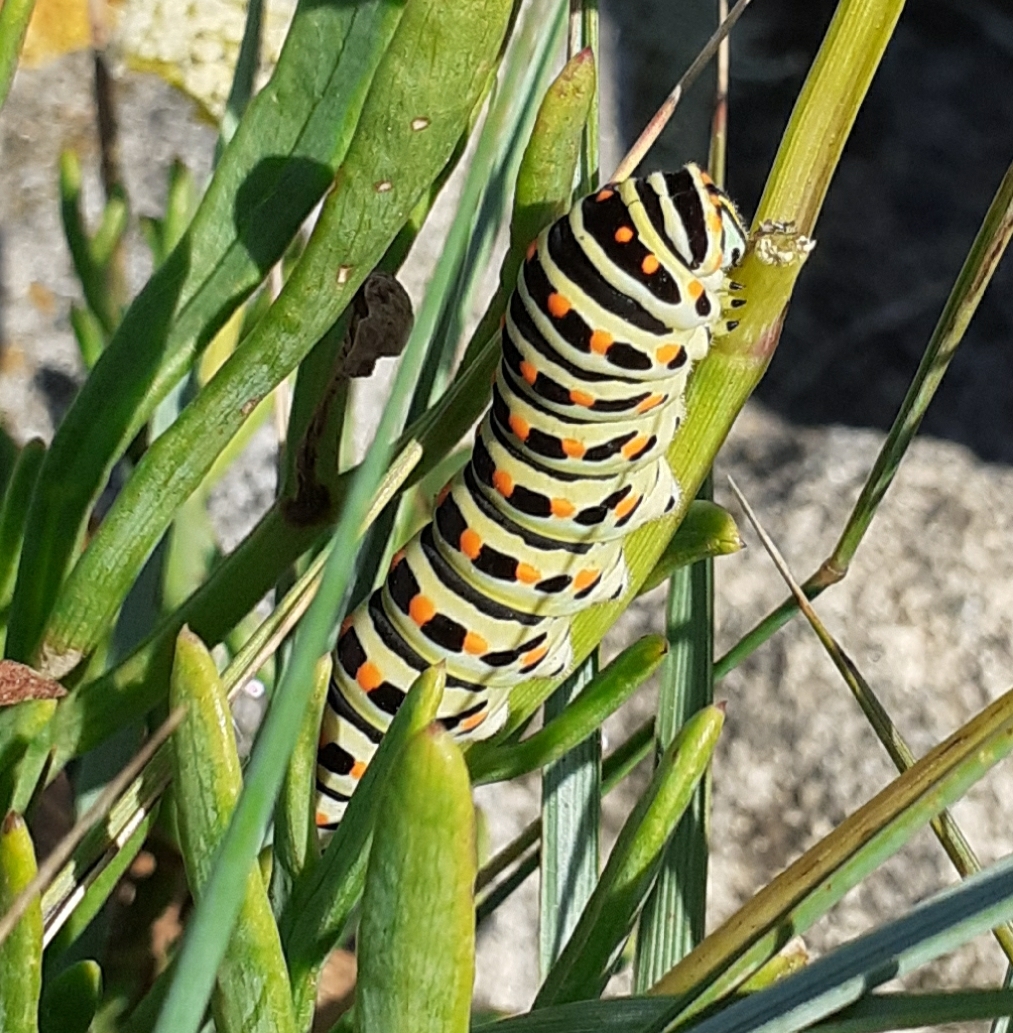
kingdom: Animalia
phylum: Arthropoda
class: Insecta
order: Lepidoptera
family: Papilionidae
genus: Papilio
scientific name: Papilio machaon
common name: Swallowtail
